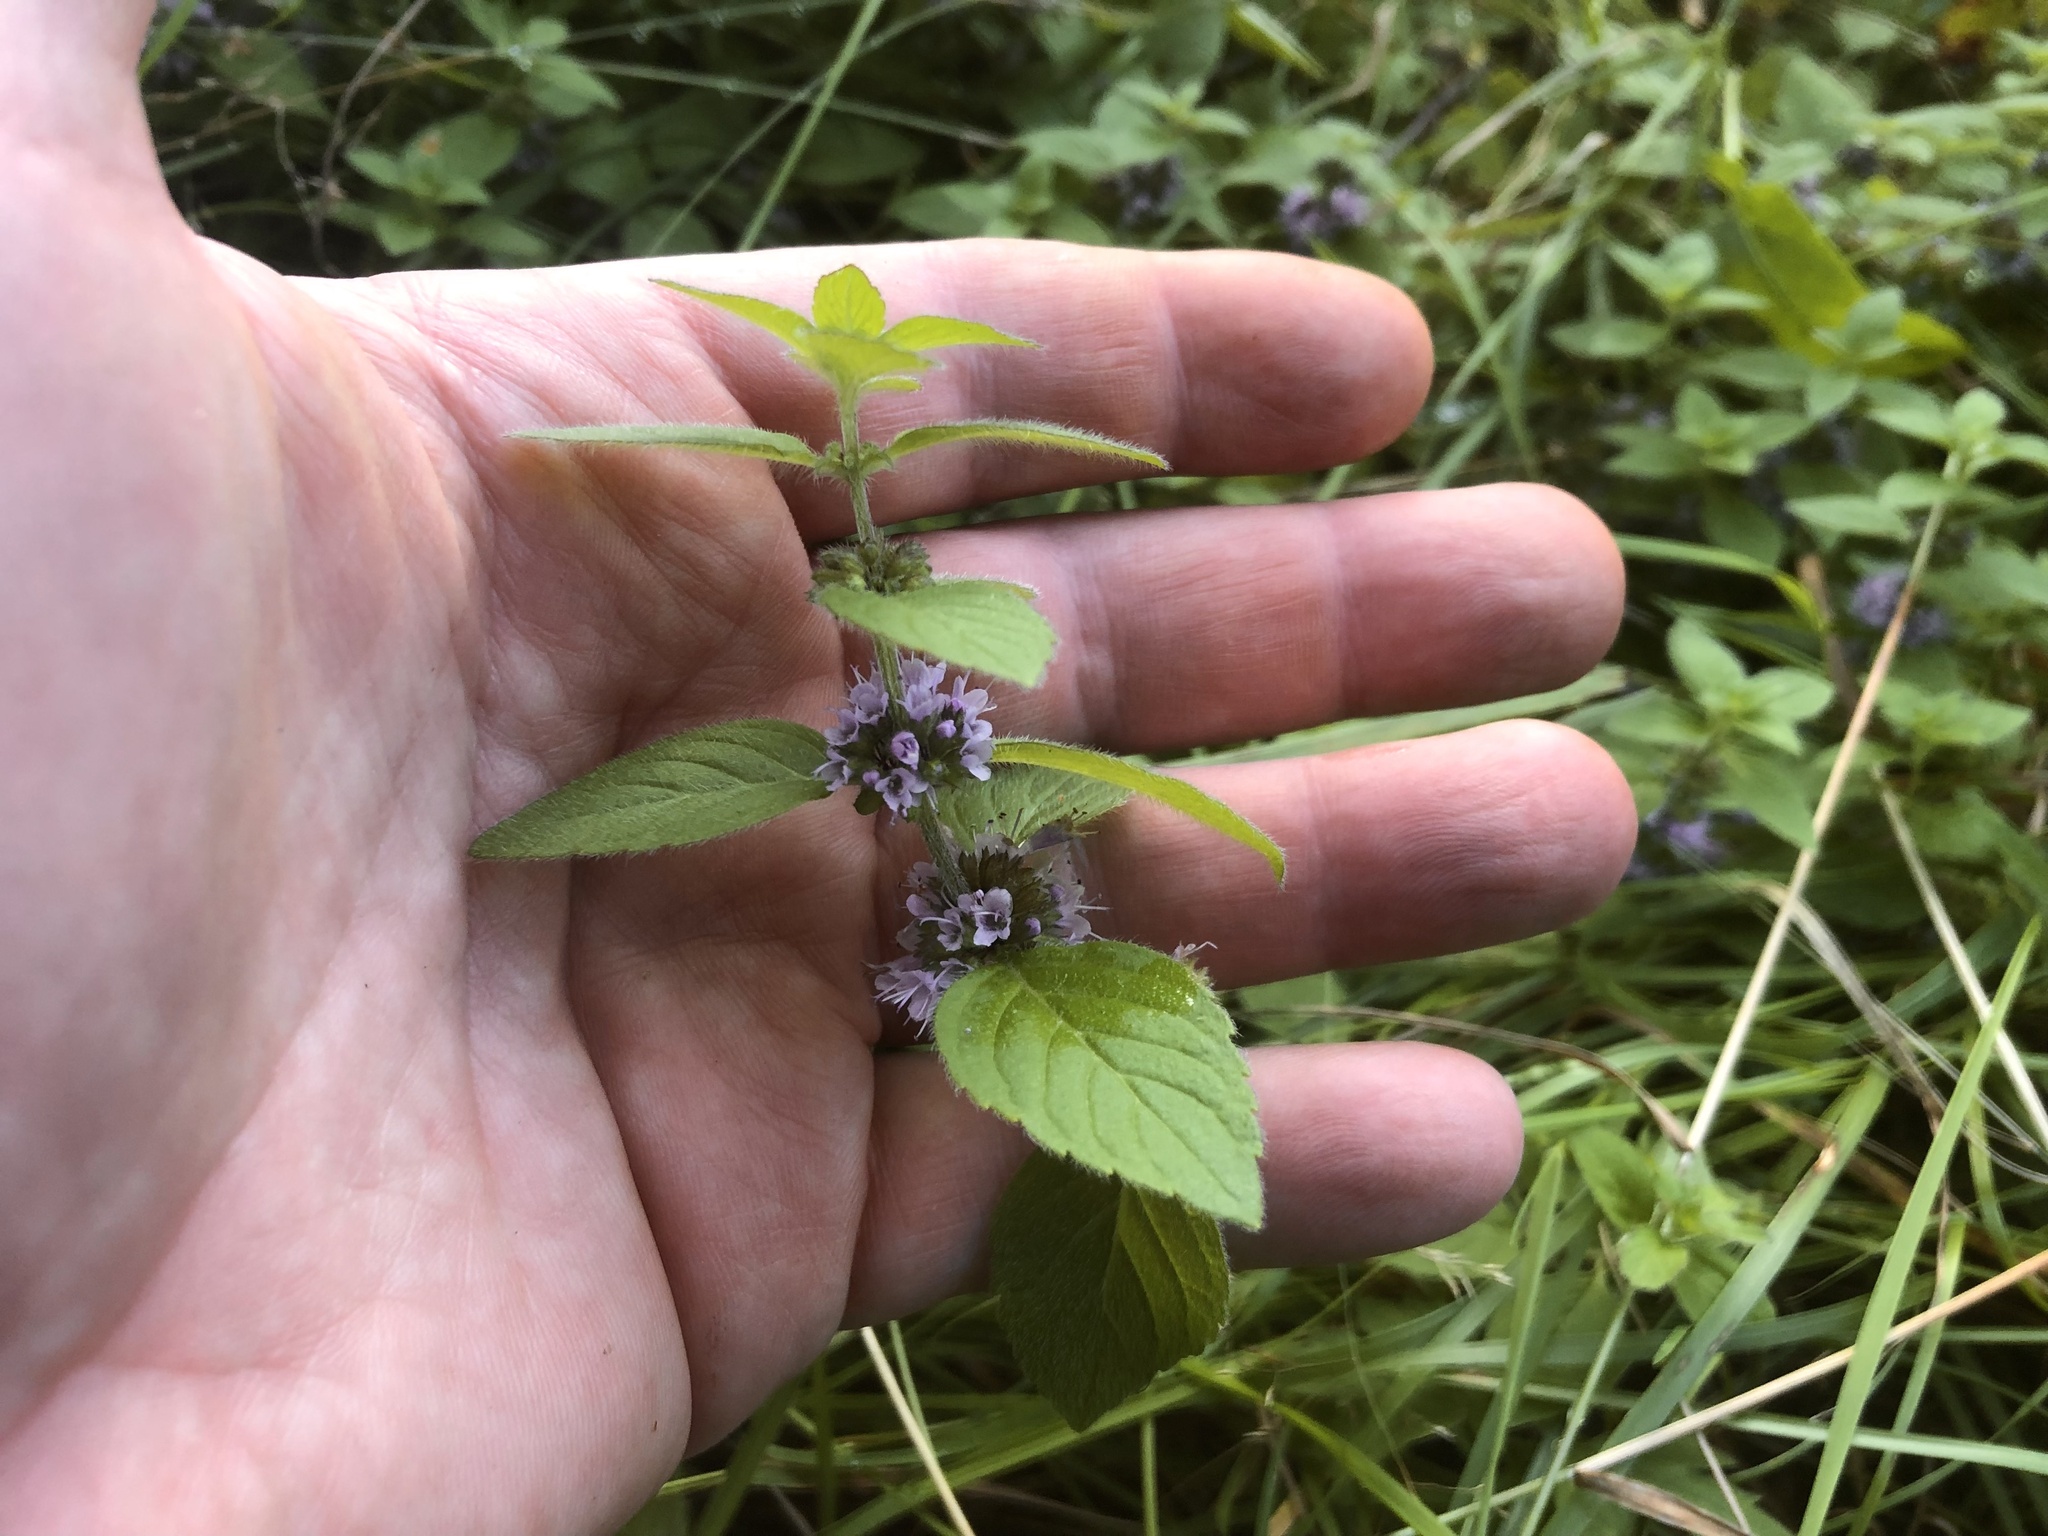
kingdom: Plantae
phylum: Tracheophyta
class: Magnoliopsida
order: Lamiales
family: Lamiaceae
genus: Mentha
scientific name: Mentha arvensis
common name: Corn mint
